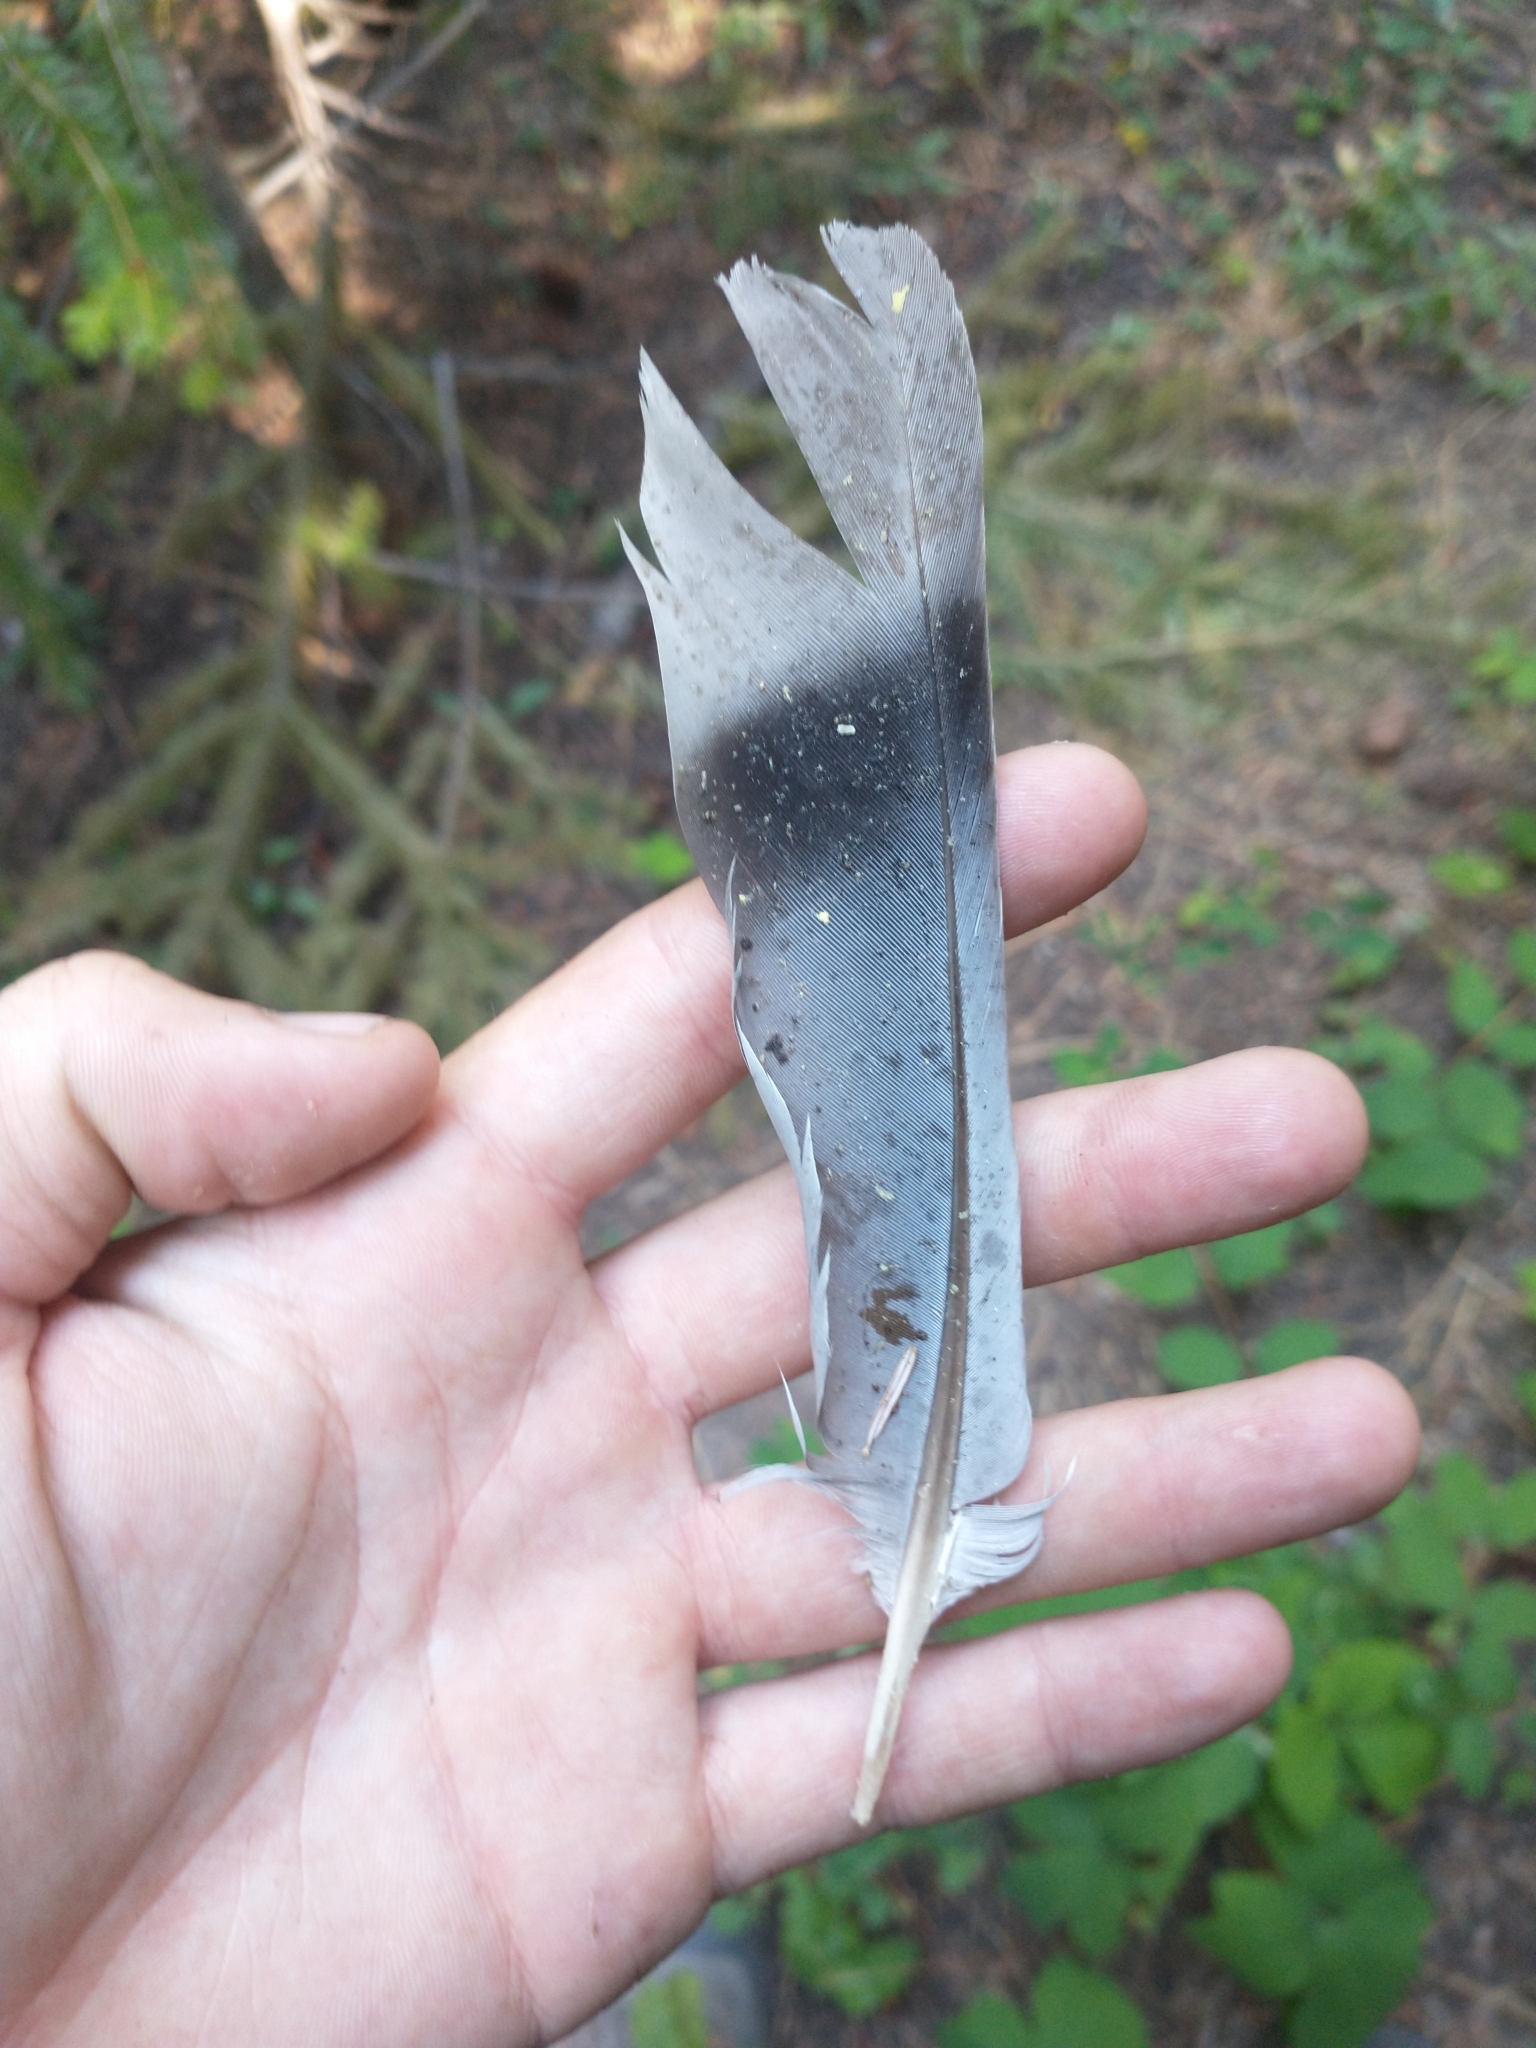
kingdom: Animalia
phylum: Chordata
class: Aves
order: Columbiformes
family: Columbidae
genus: Patagioenas
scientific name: Patagioenas fasciata
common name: Band-tailed pigeon
